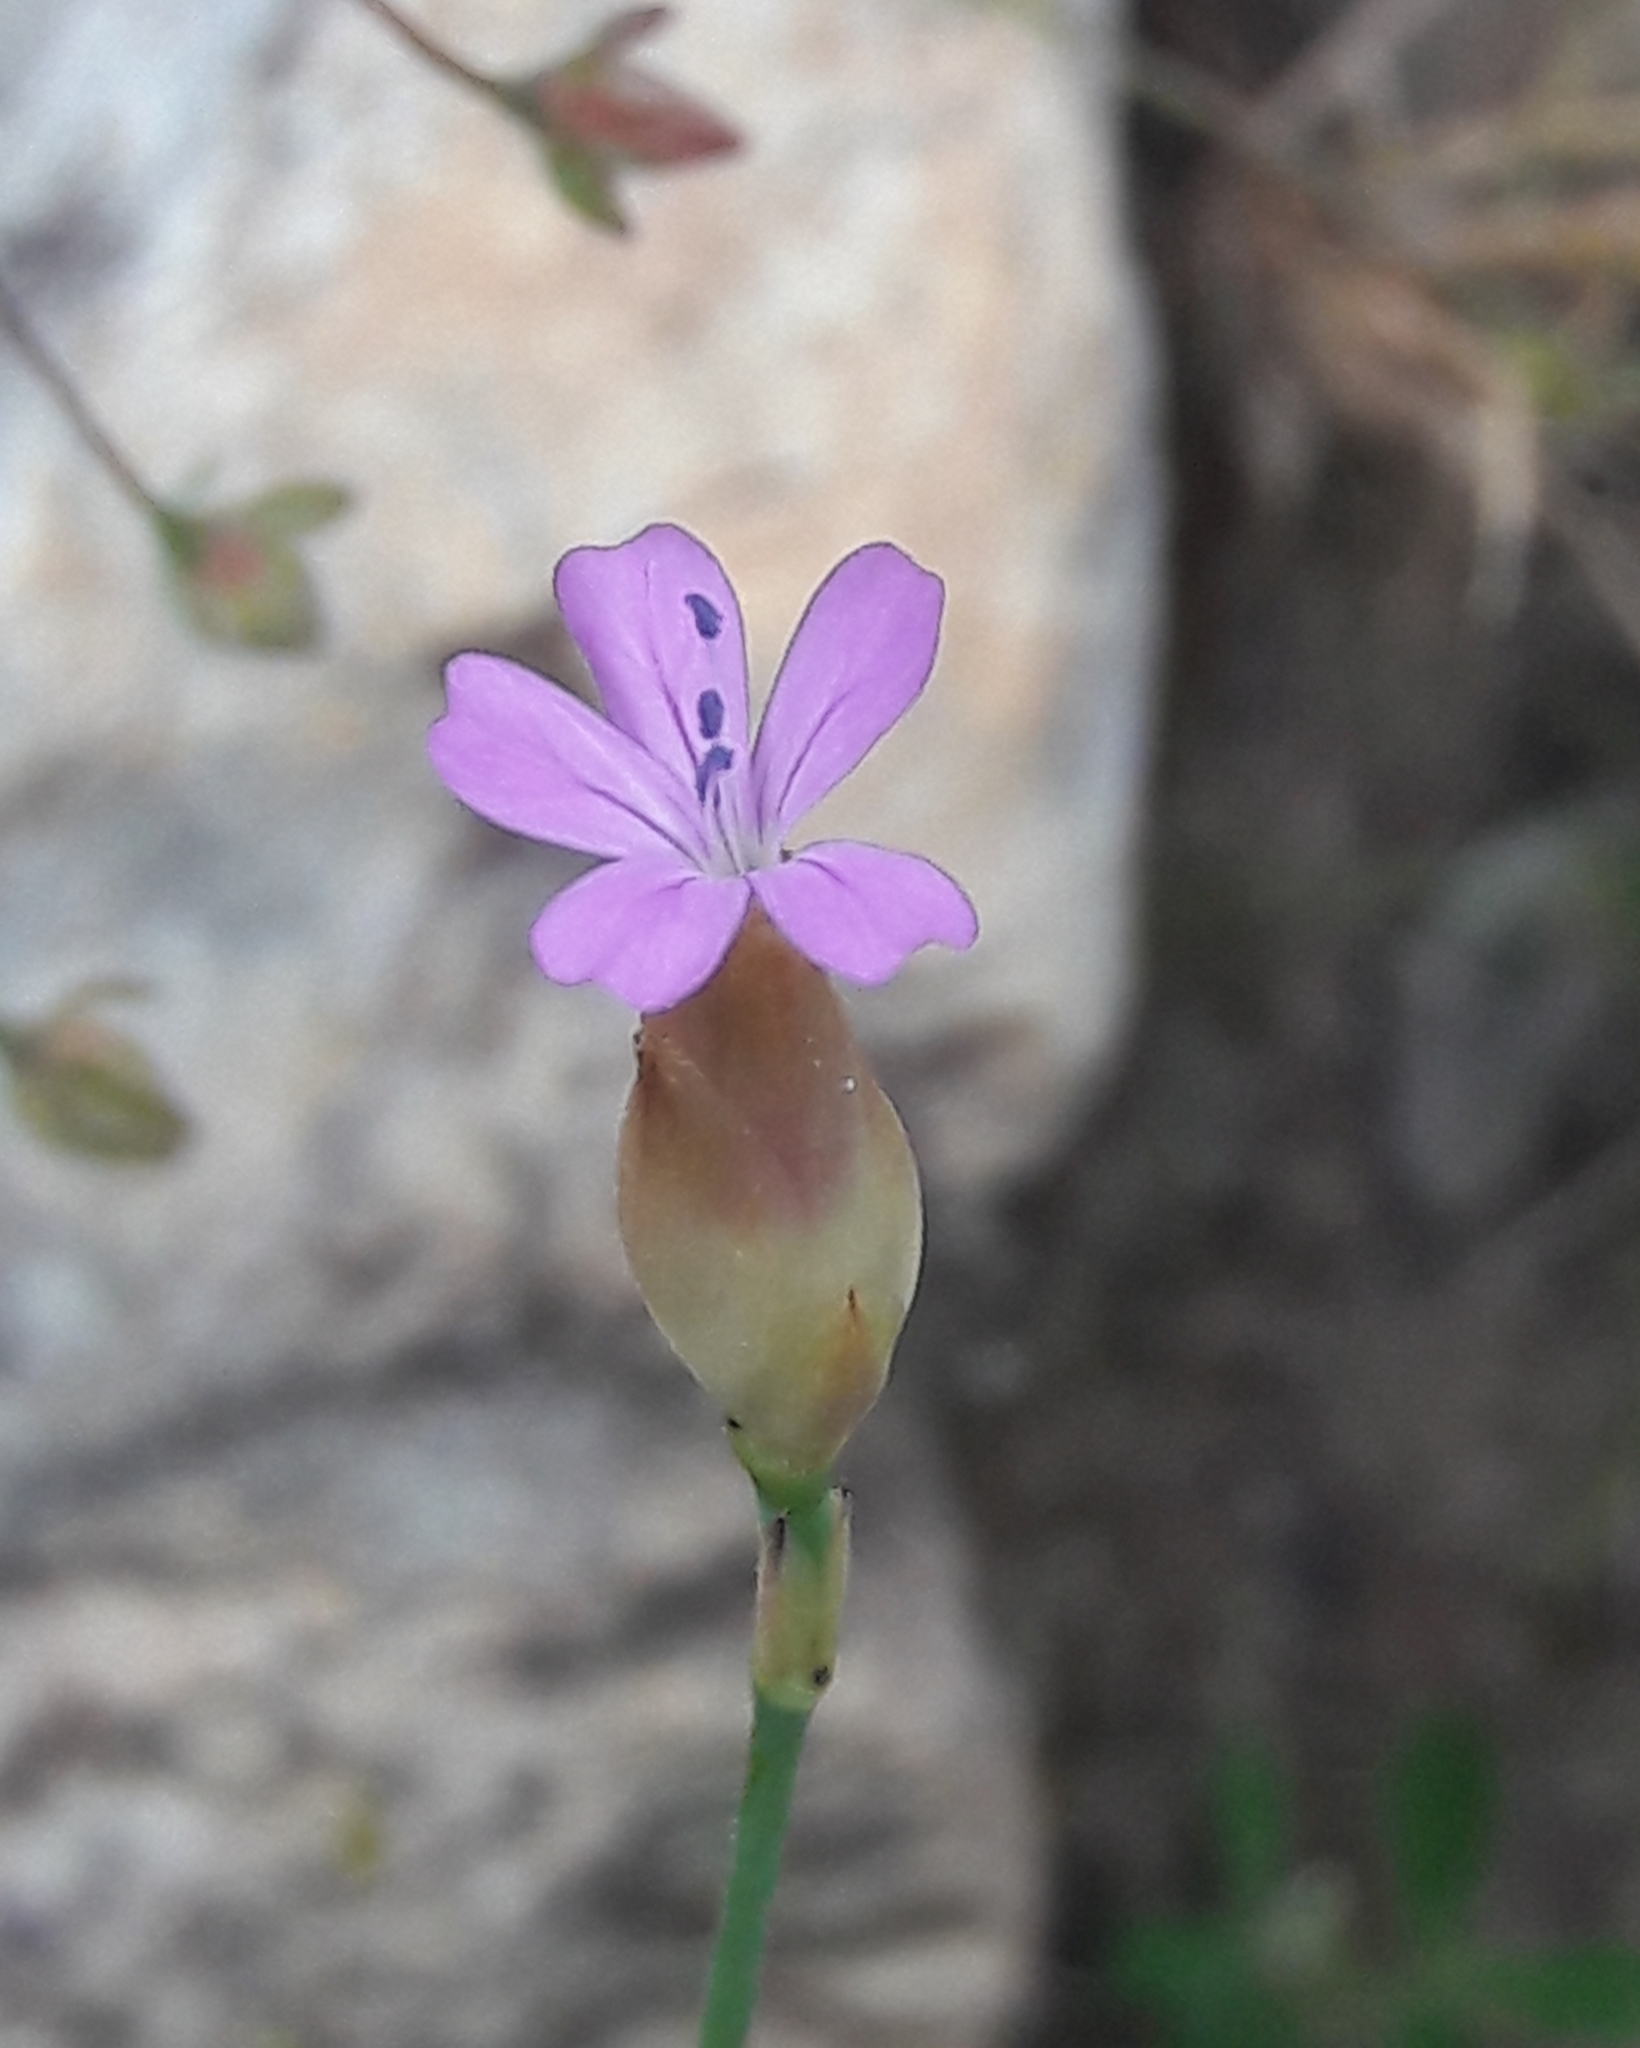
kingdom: Plantae
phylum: Tracheophyta
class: Magnoliopsida
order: Caryophyllales
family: Caryophyllaceae
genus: Petrorhagia
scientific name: Petrorhagia prolifera
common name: Proliferous pink
